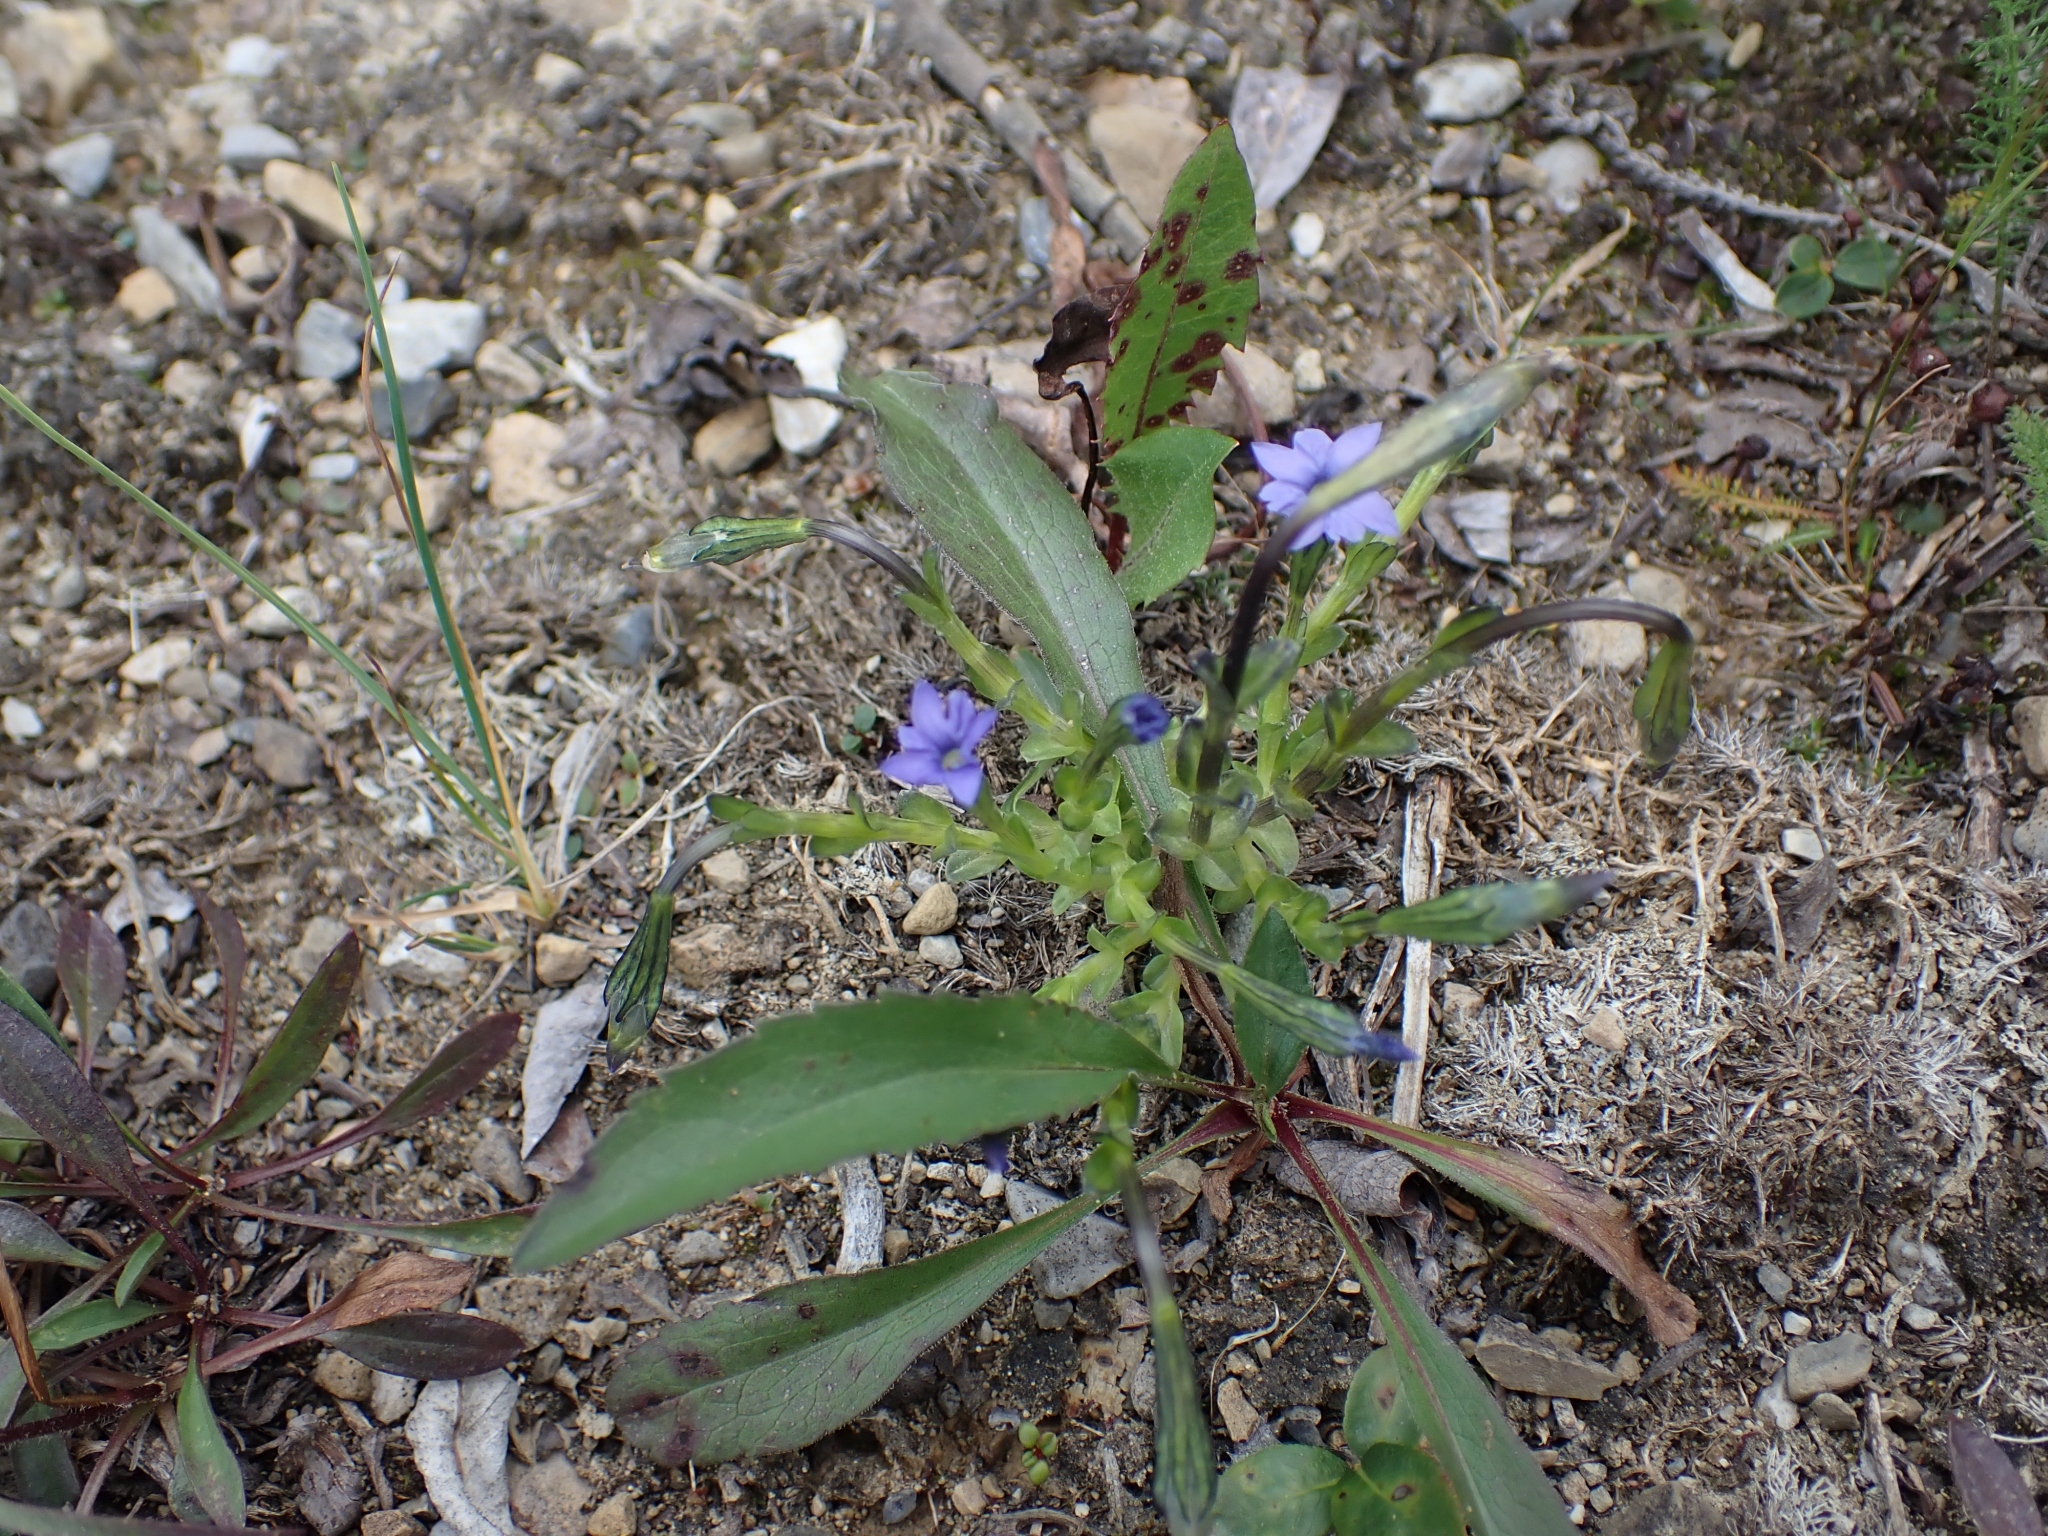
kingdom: Plantae
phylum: Tracheophyta
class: Magnoliopsida
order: Gentianales
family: Gentianaceae
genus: Gentiana
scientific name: Gentiana prostrata
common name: Moss gentian
